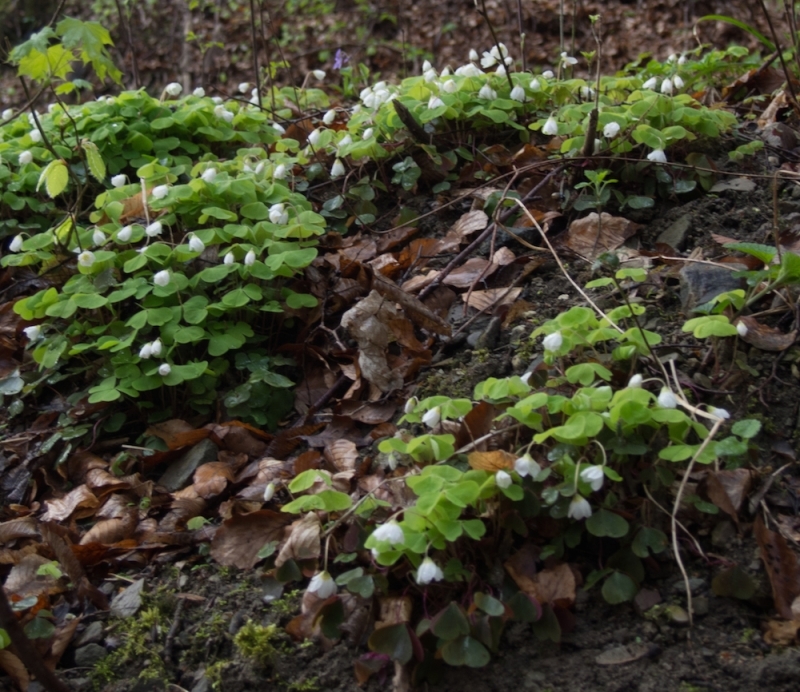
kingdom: Plantae
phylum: Tracheophyta
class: Magnoliopsida
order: Oxalidales
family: Oxalidaceae
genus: Oxalis
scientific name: Oxalis acetosella
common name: Wood-sorrel
